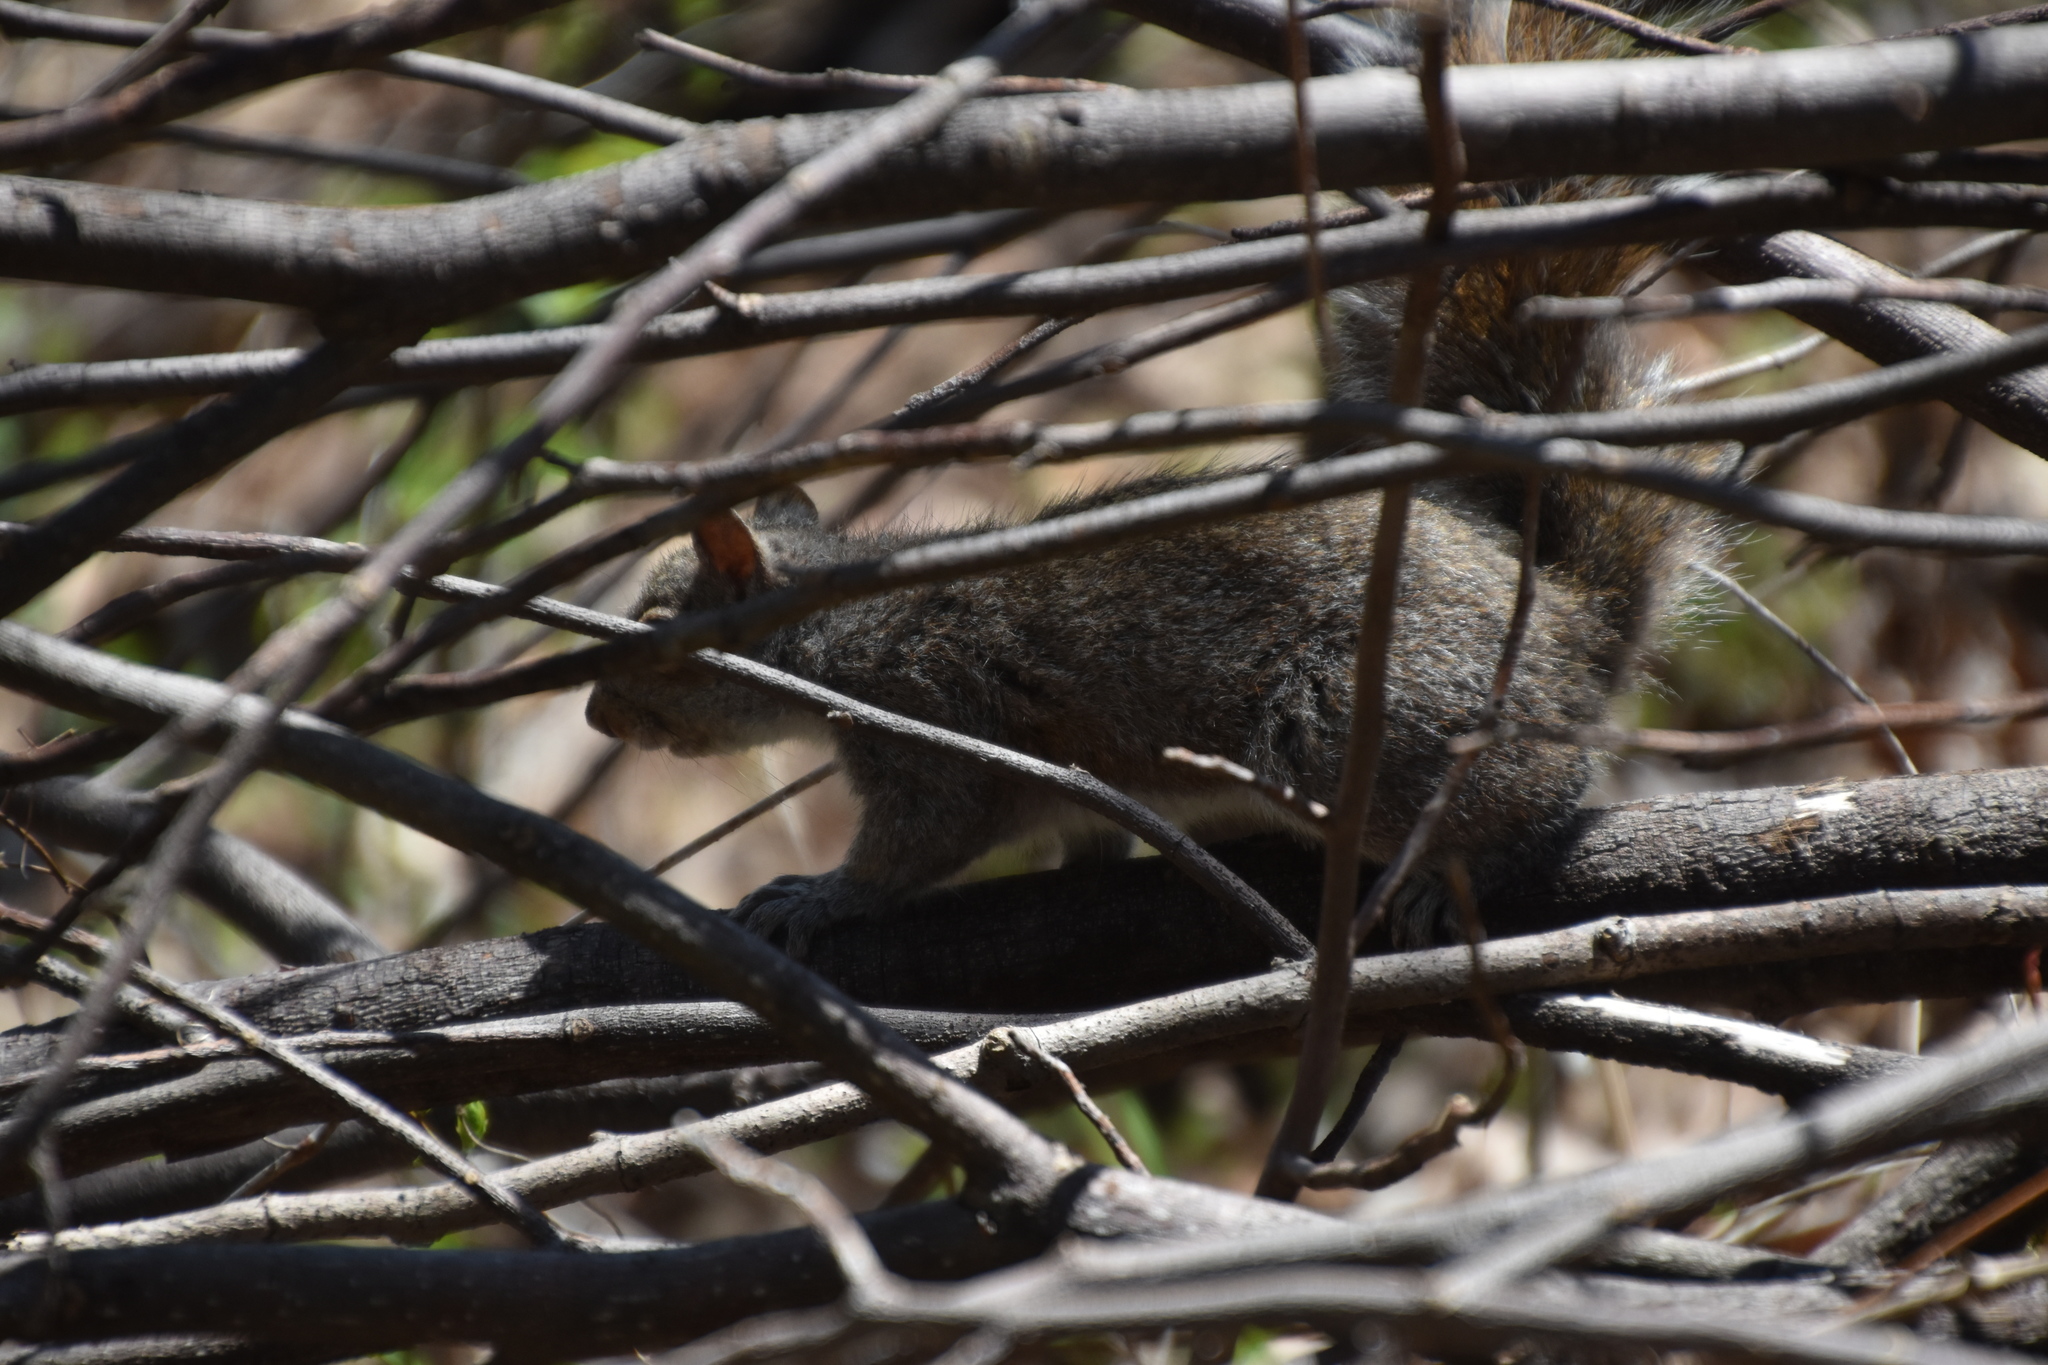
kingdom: Animalia
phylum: Chordata
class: Mammalia
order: Rodentia
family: Sciuridae
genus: Sciurus
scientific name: Sciurus carolinensis
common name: Eastern gray squirrel
